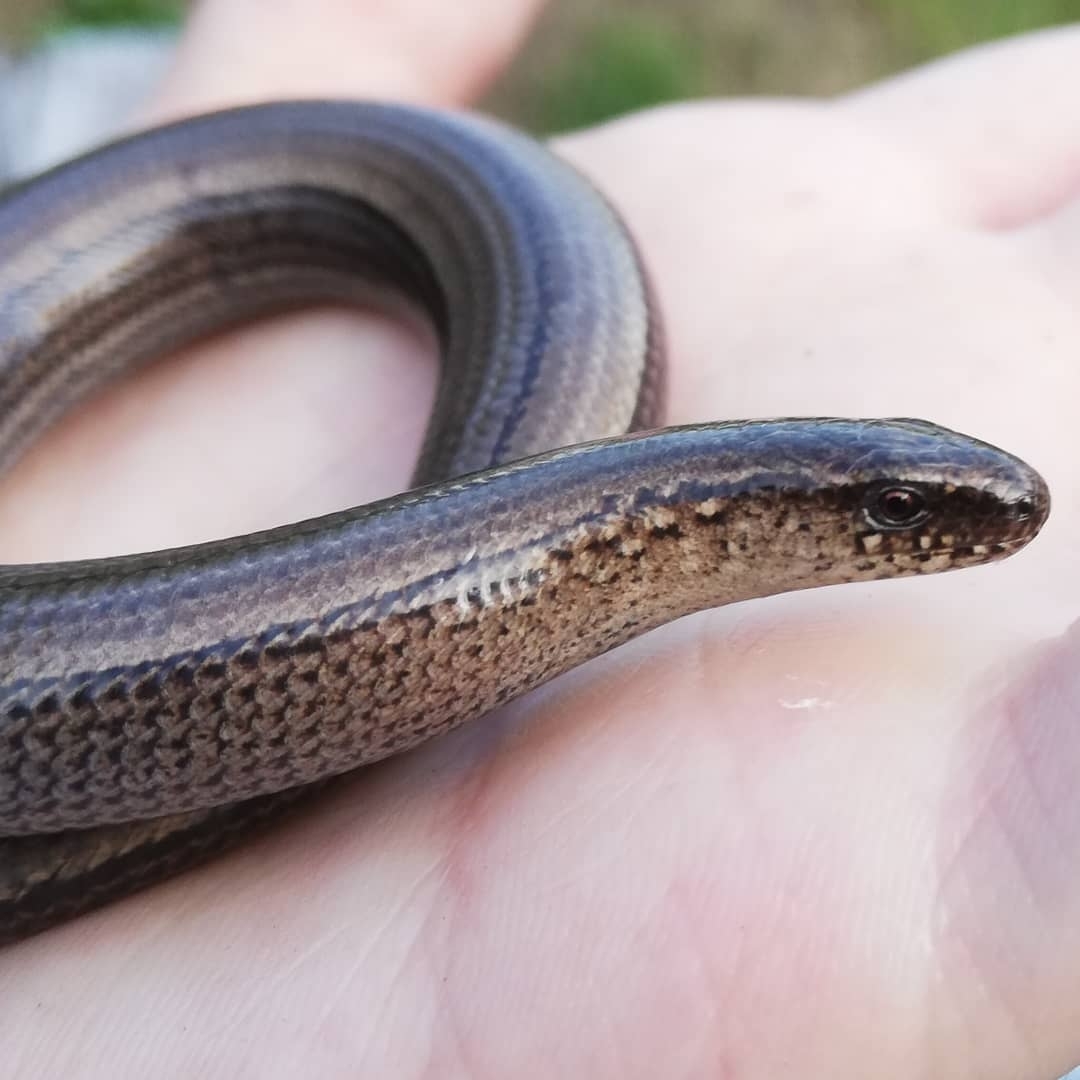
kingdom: Animalia
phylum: Chordata
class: Squamata
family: Anguidae
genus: Anguis
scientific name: Anguis fragilis
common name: Slow worm
